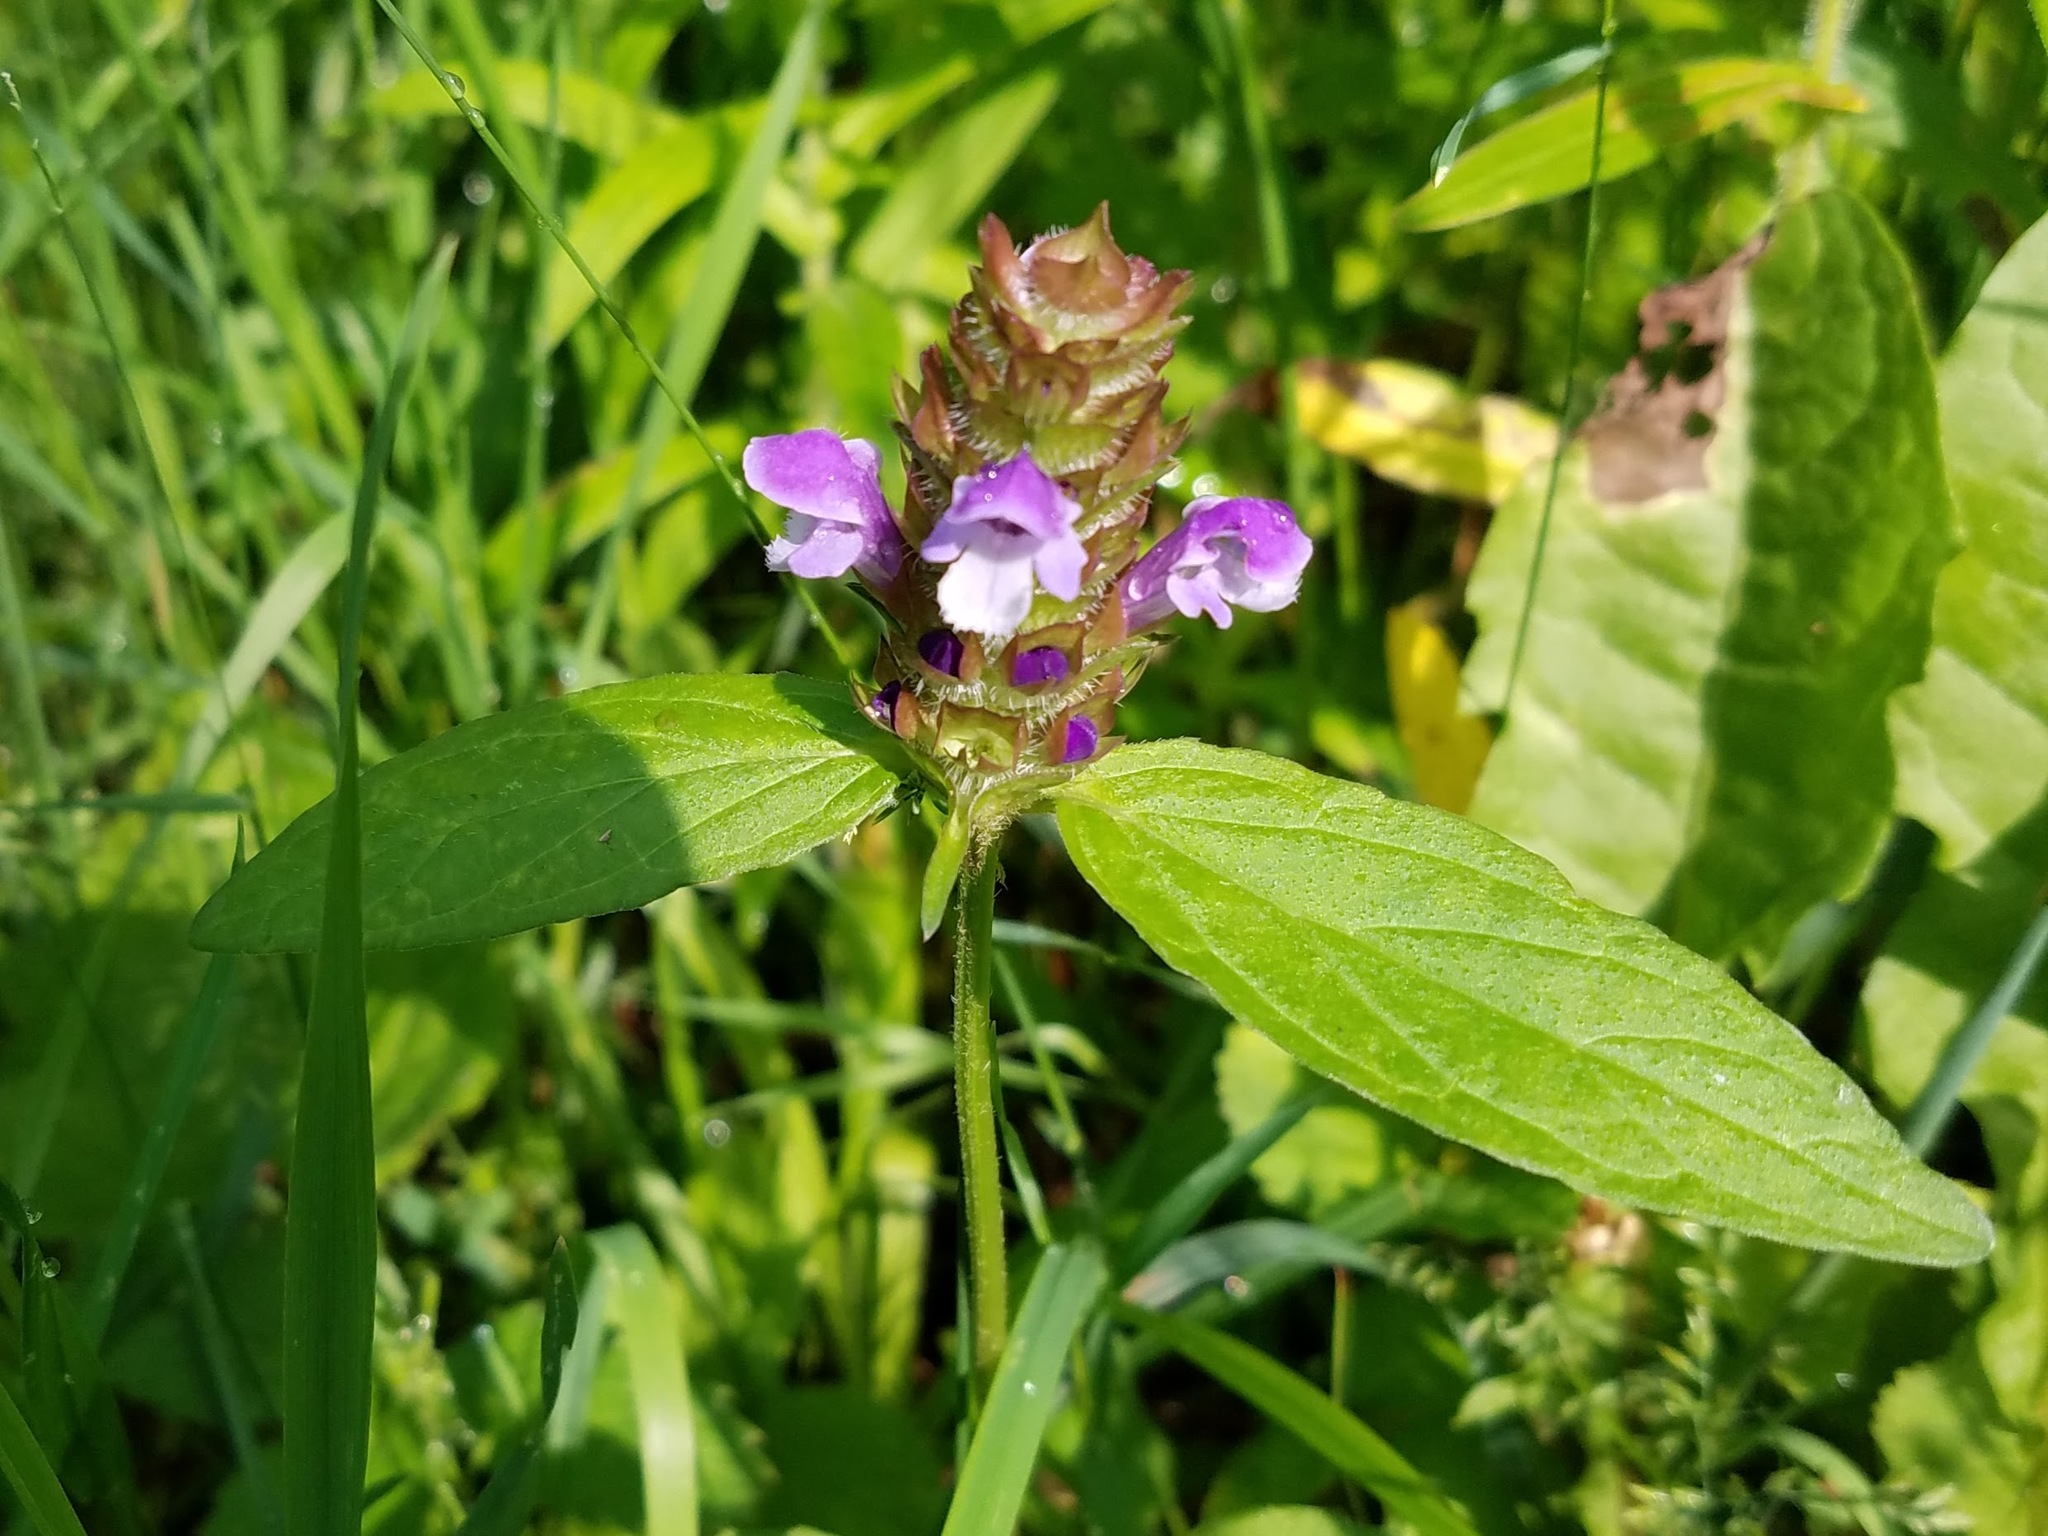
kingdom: Plantae
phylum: Tracheophyta
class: Magnoliopsida
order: Lamiales
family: Lamiaceae
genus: Prunella
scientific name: Prunella vulgaris
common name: Heal-all
